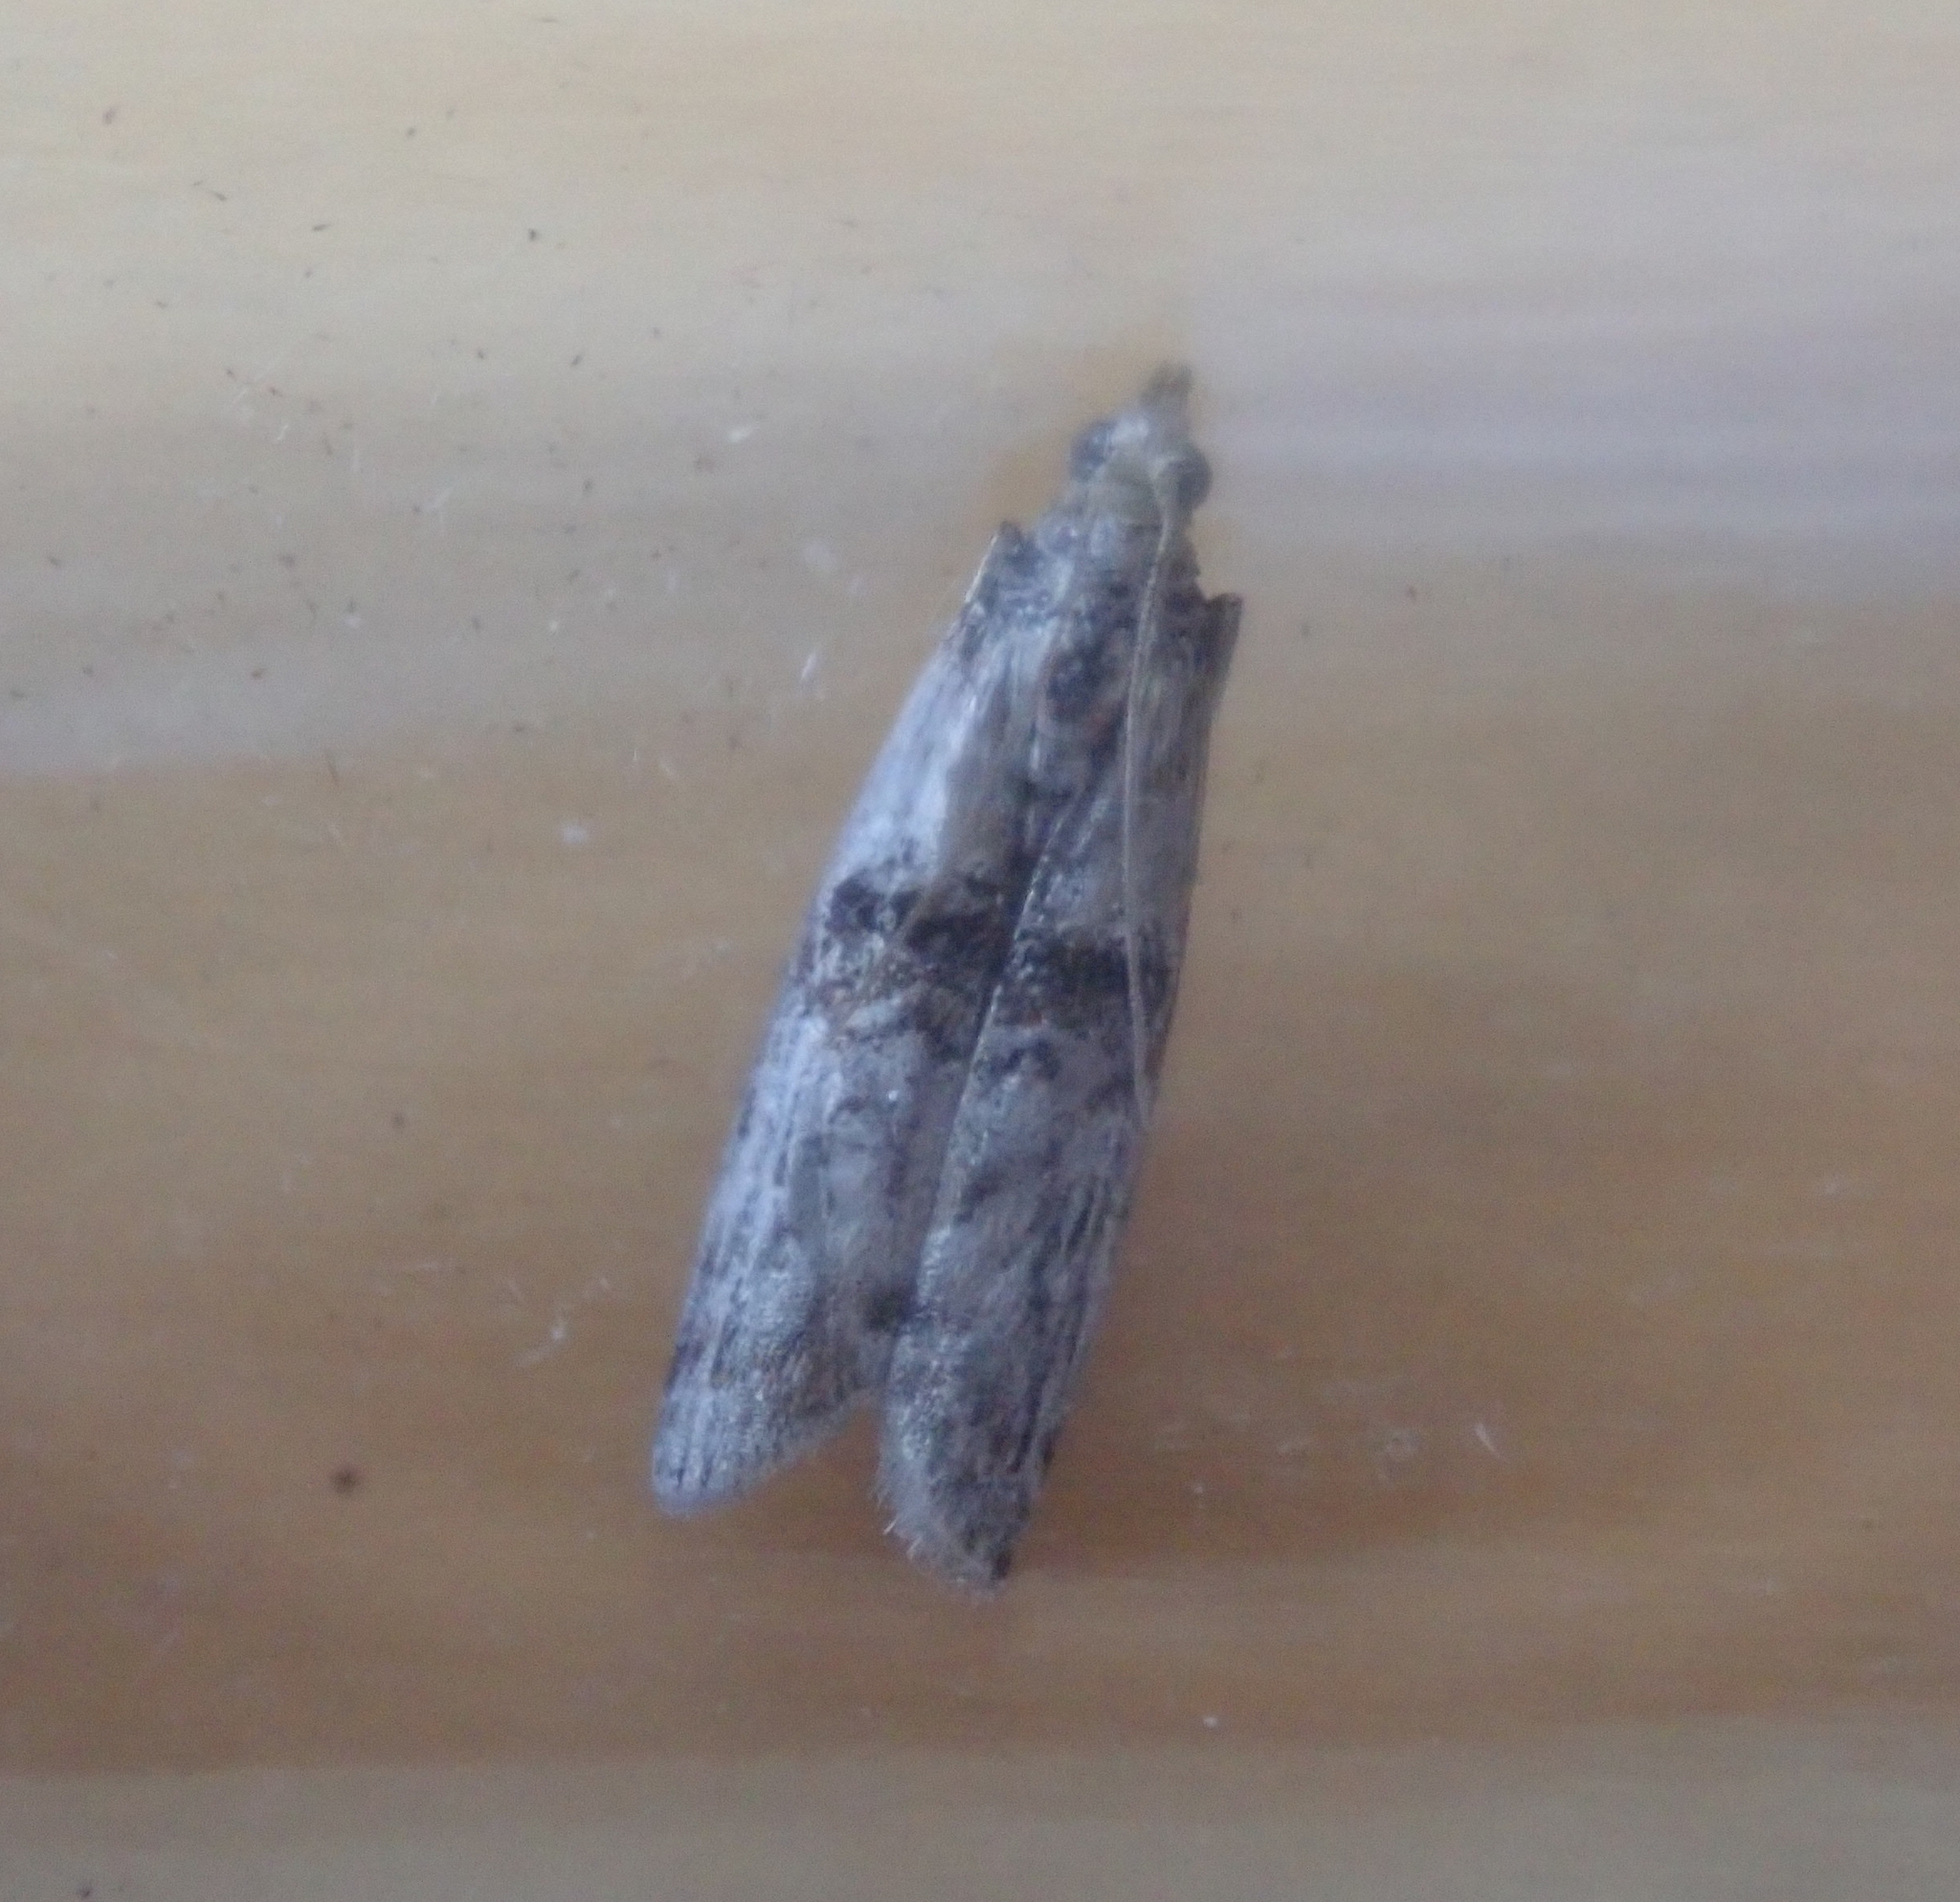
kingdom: Animalia
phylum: Arthropoda
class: Insecta
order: Lepidoptera
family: Pyralidae
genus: Nephopterix
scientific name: Nephopterix angustella
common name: Spindle knot-horn
